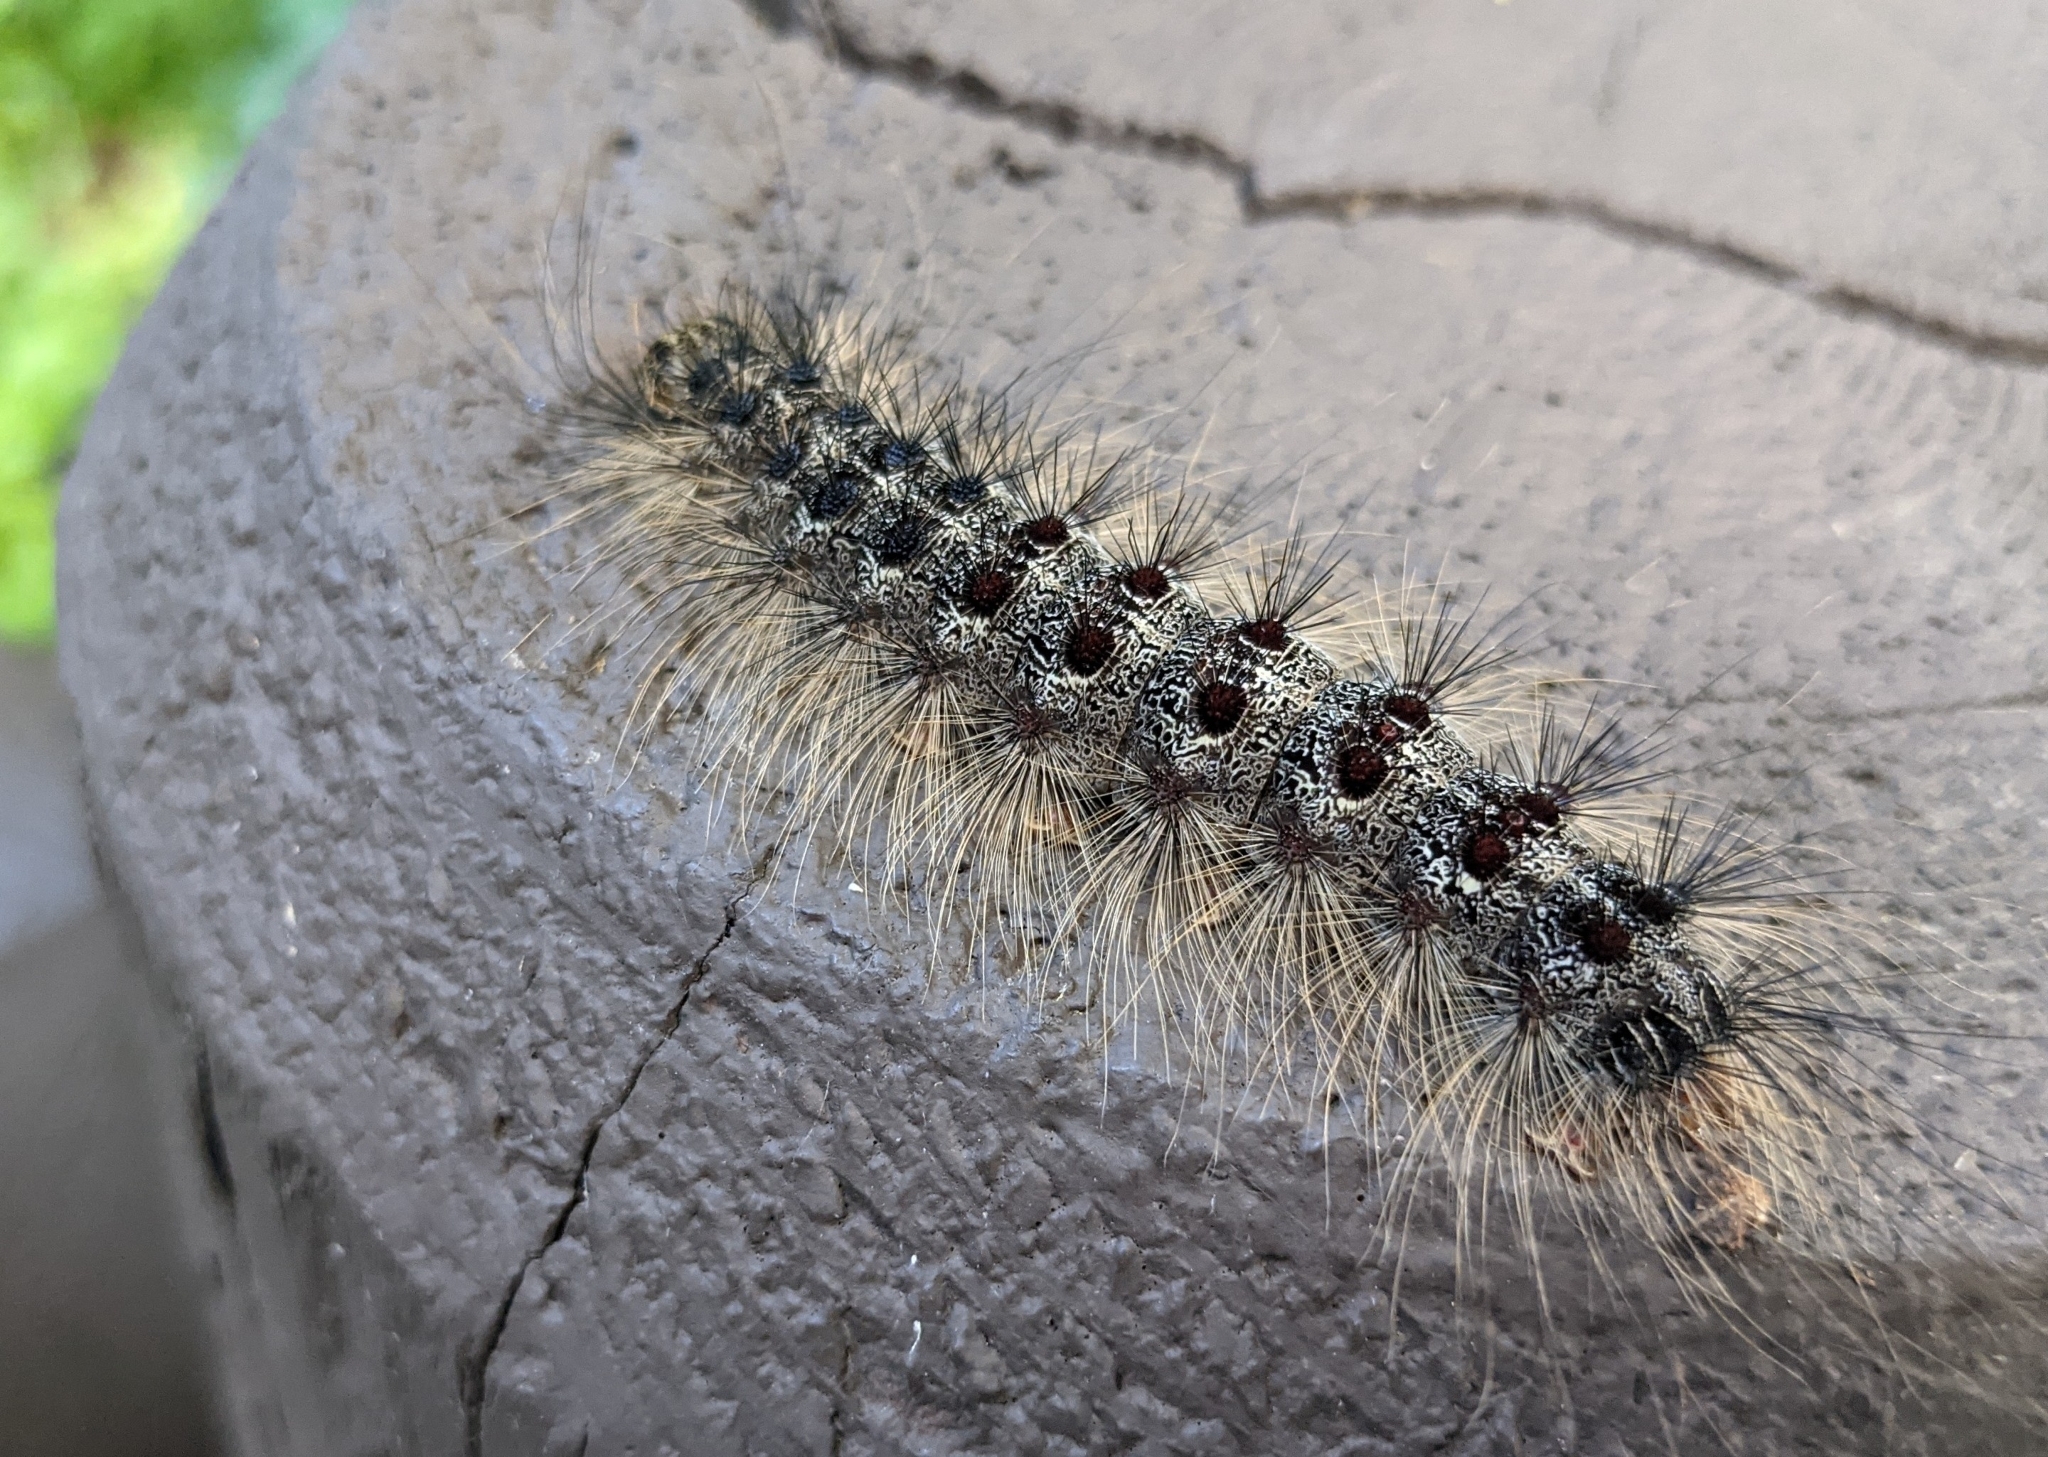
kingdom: Animalia
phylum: Arthropoda
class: Insecta
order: Lepidoptera
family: Erebidae
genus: Lymantria
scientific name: Lymantria dispar
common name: Gypsy moth
